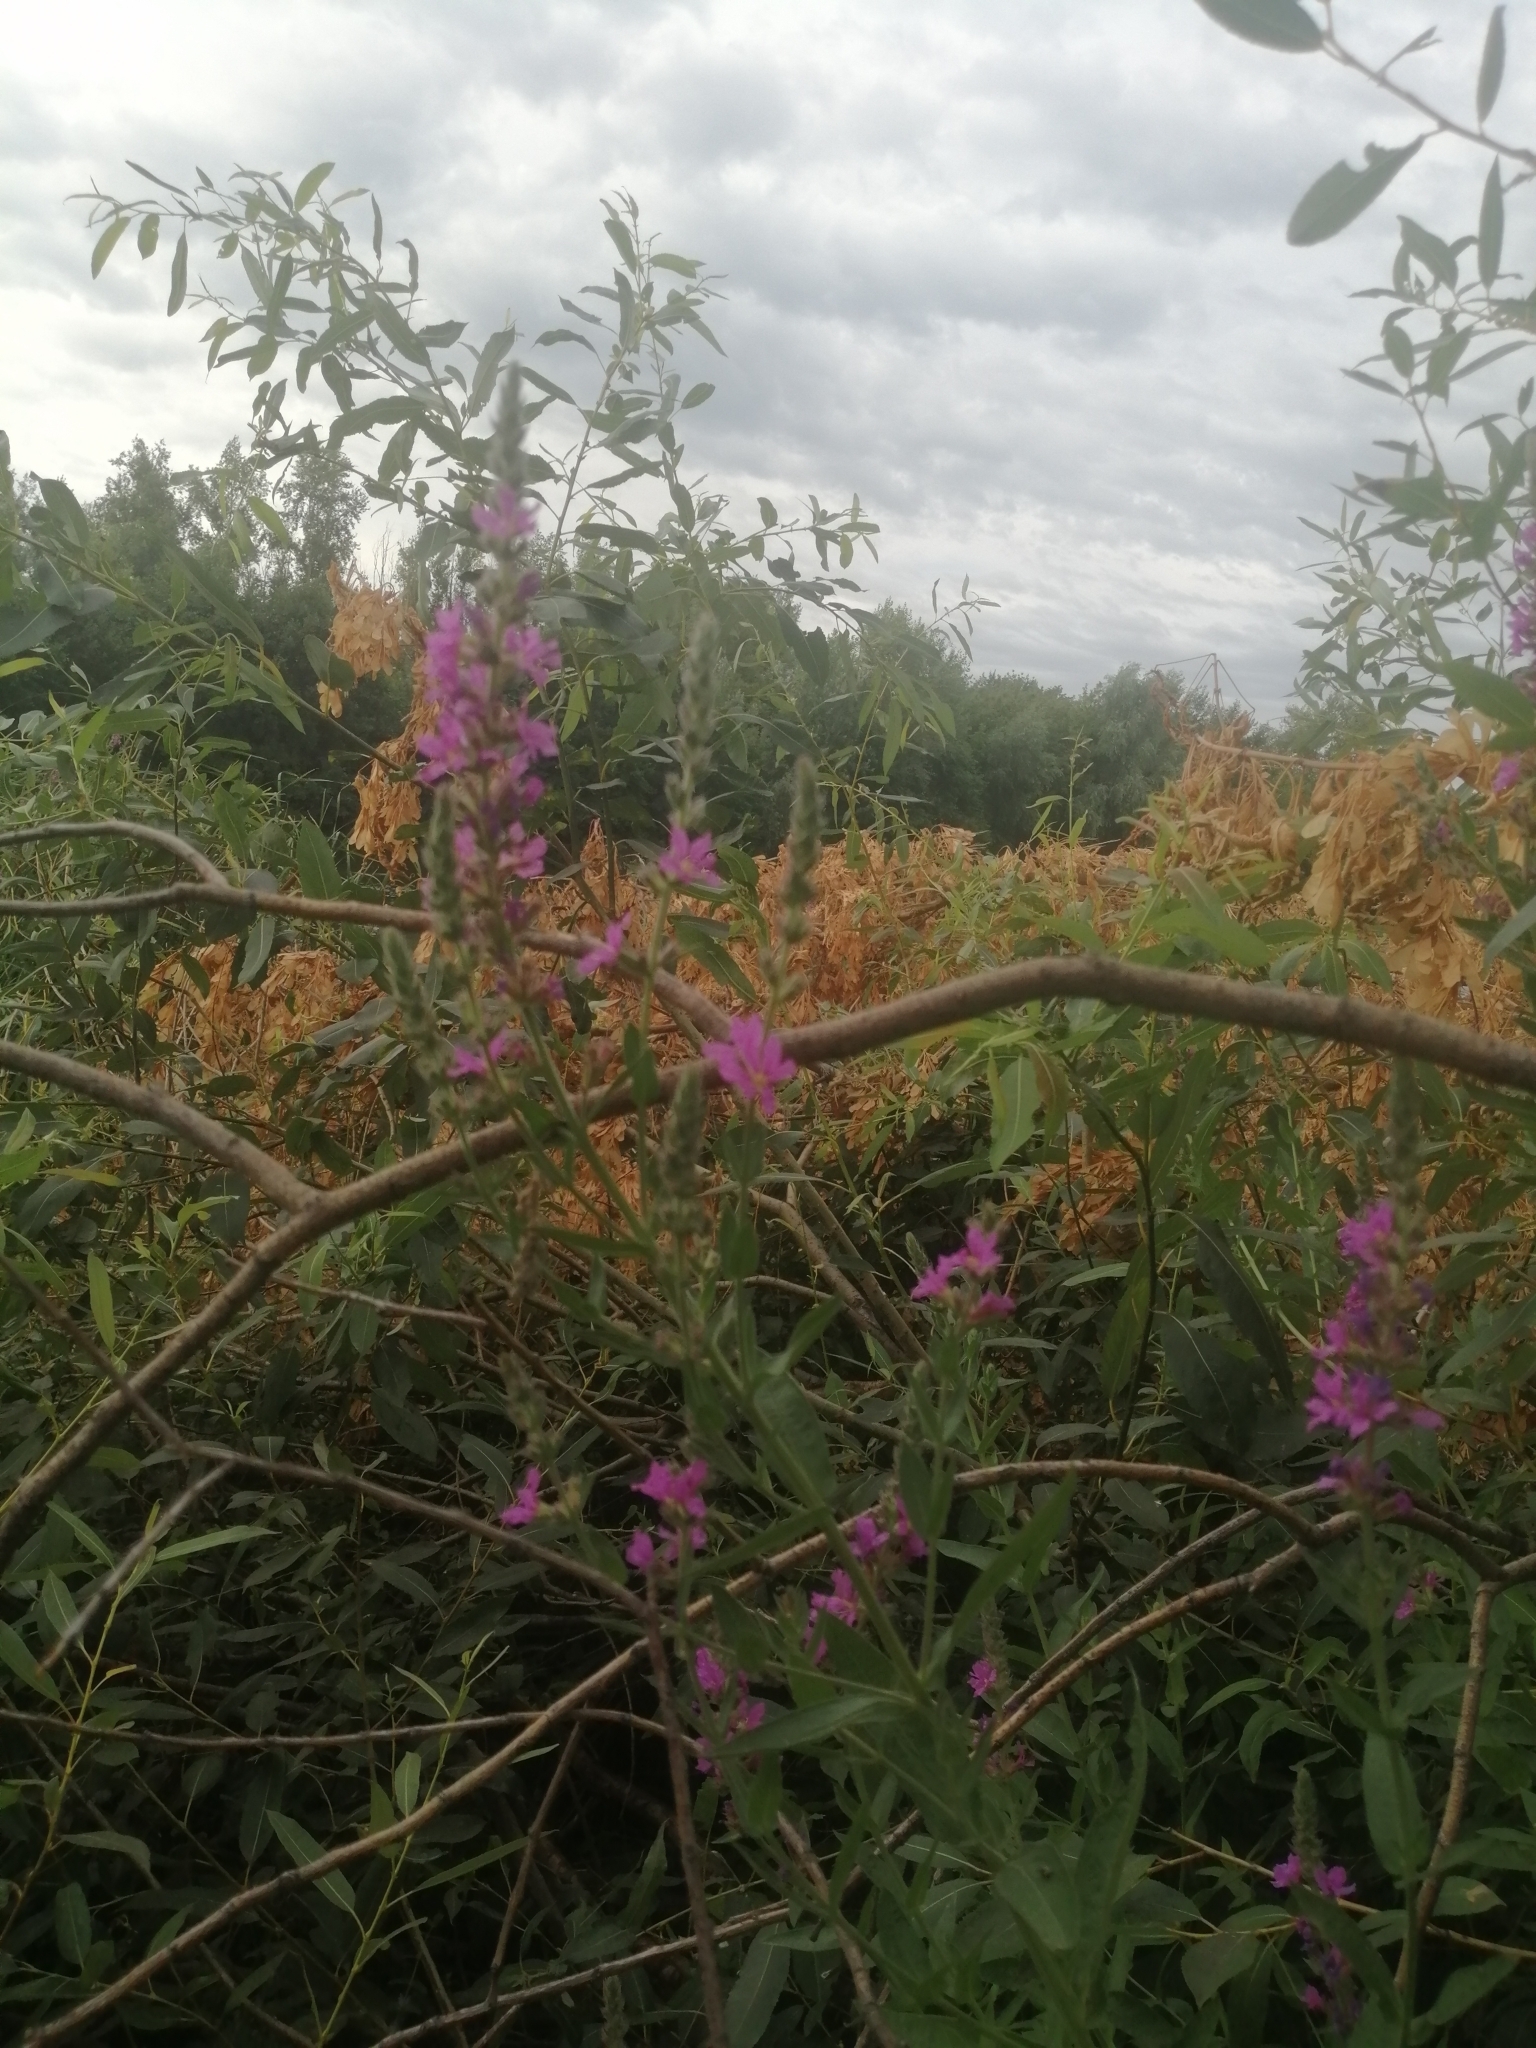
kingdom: Plantae
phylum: Tracheophyta
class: Magnoliopsida
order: Myrtales
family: Lythraceae
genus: Lythrum
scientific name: Lythrum salicaria
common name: Purple loosestrife
